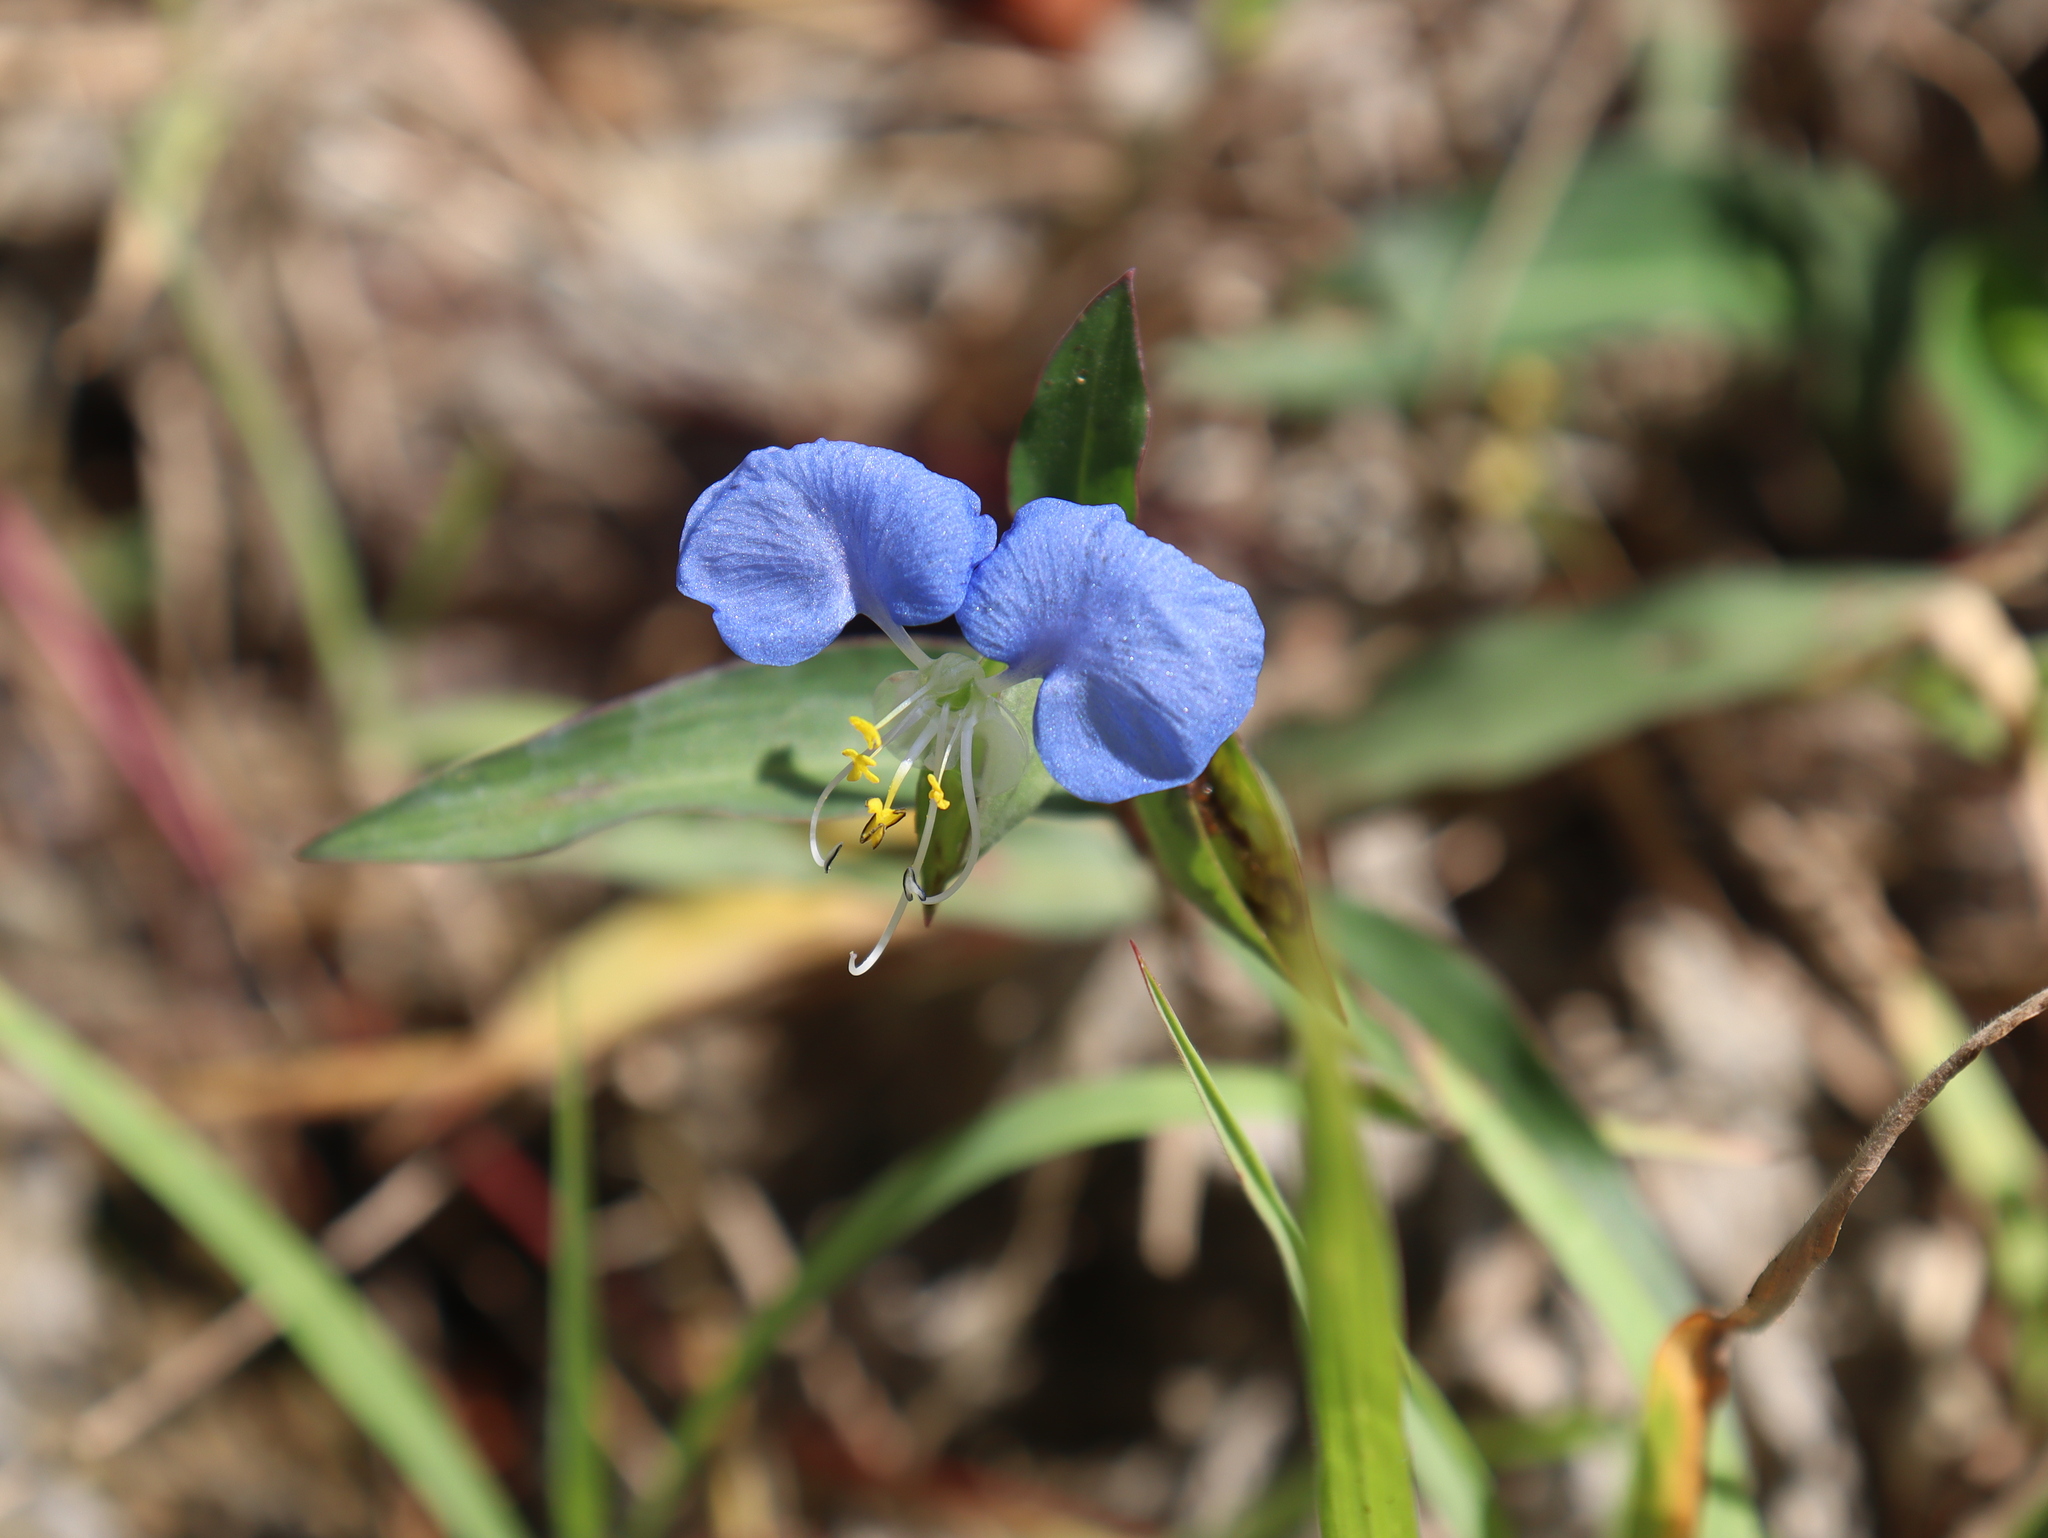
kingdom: Plantae
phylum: Tracheophyta
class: Liliopsida
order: Commelinales
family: Commelinaceae
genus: Commelina
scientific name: Commelina erecta
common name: Blousel blommetjie
